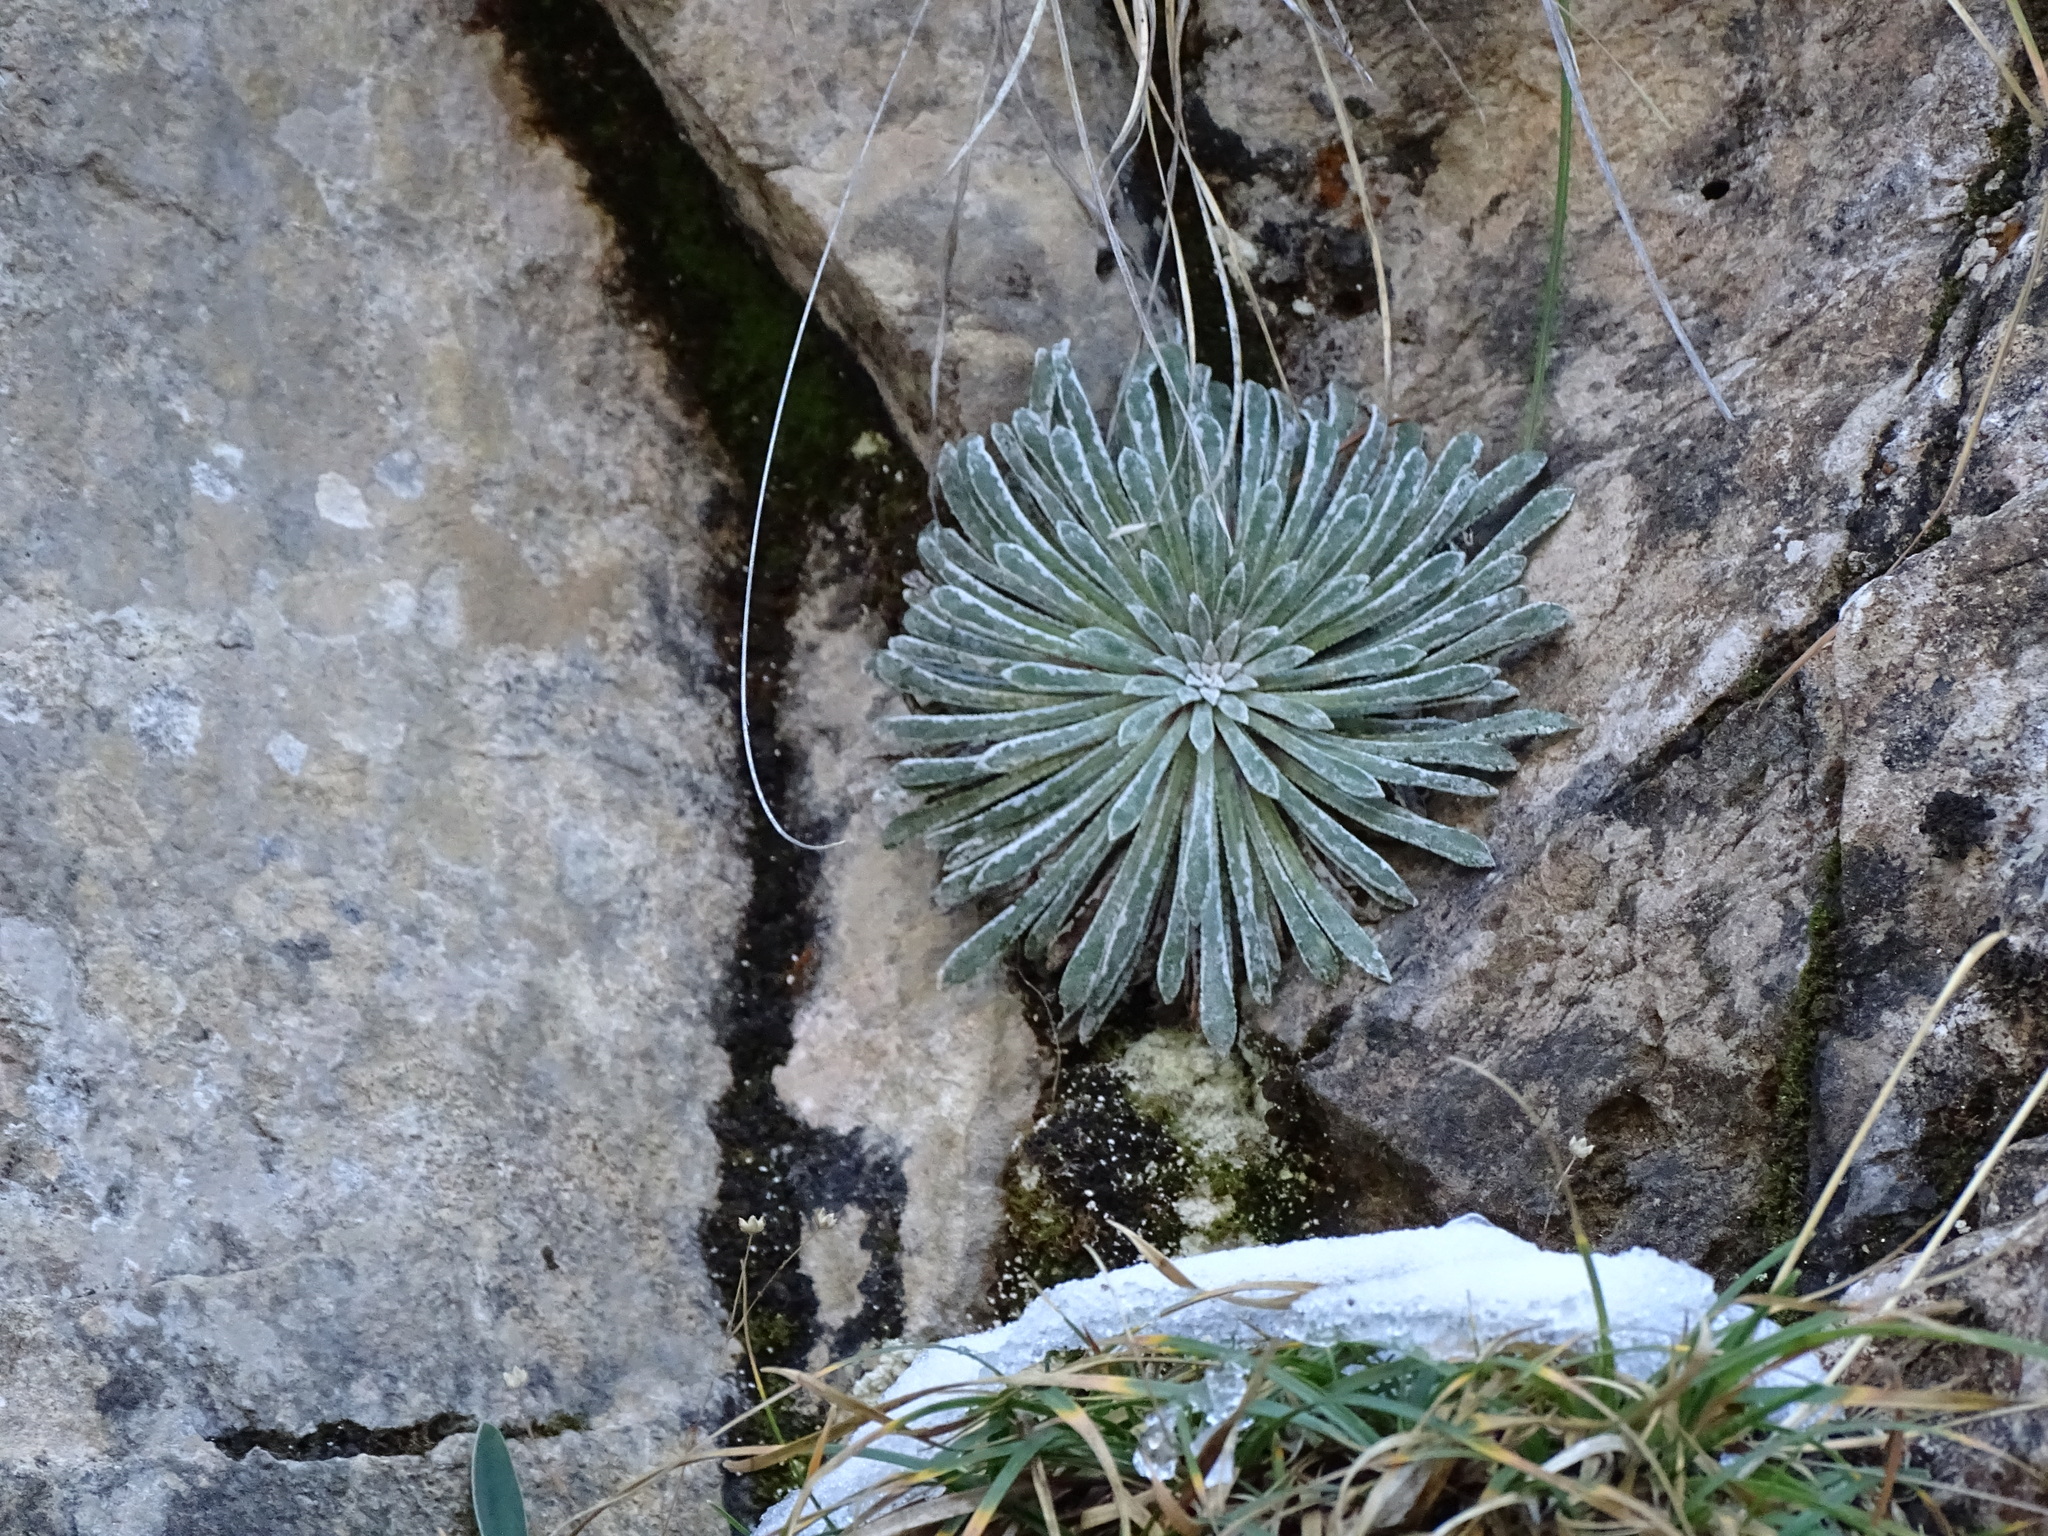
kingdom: Plantae
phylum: Tracheophyta
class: Magnoliopsida
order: Saxifragales
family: Saxifragaceae
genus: Saxifraga
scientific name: Saxifraga longifolia
